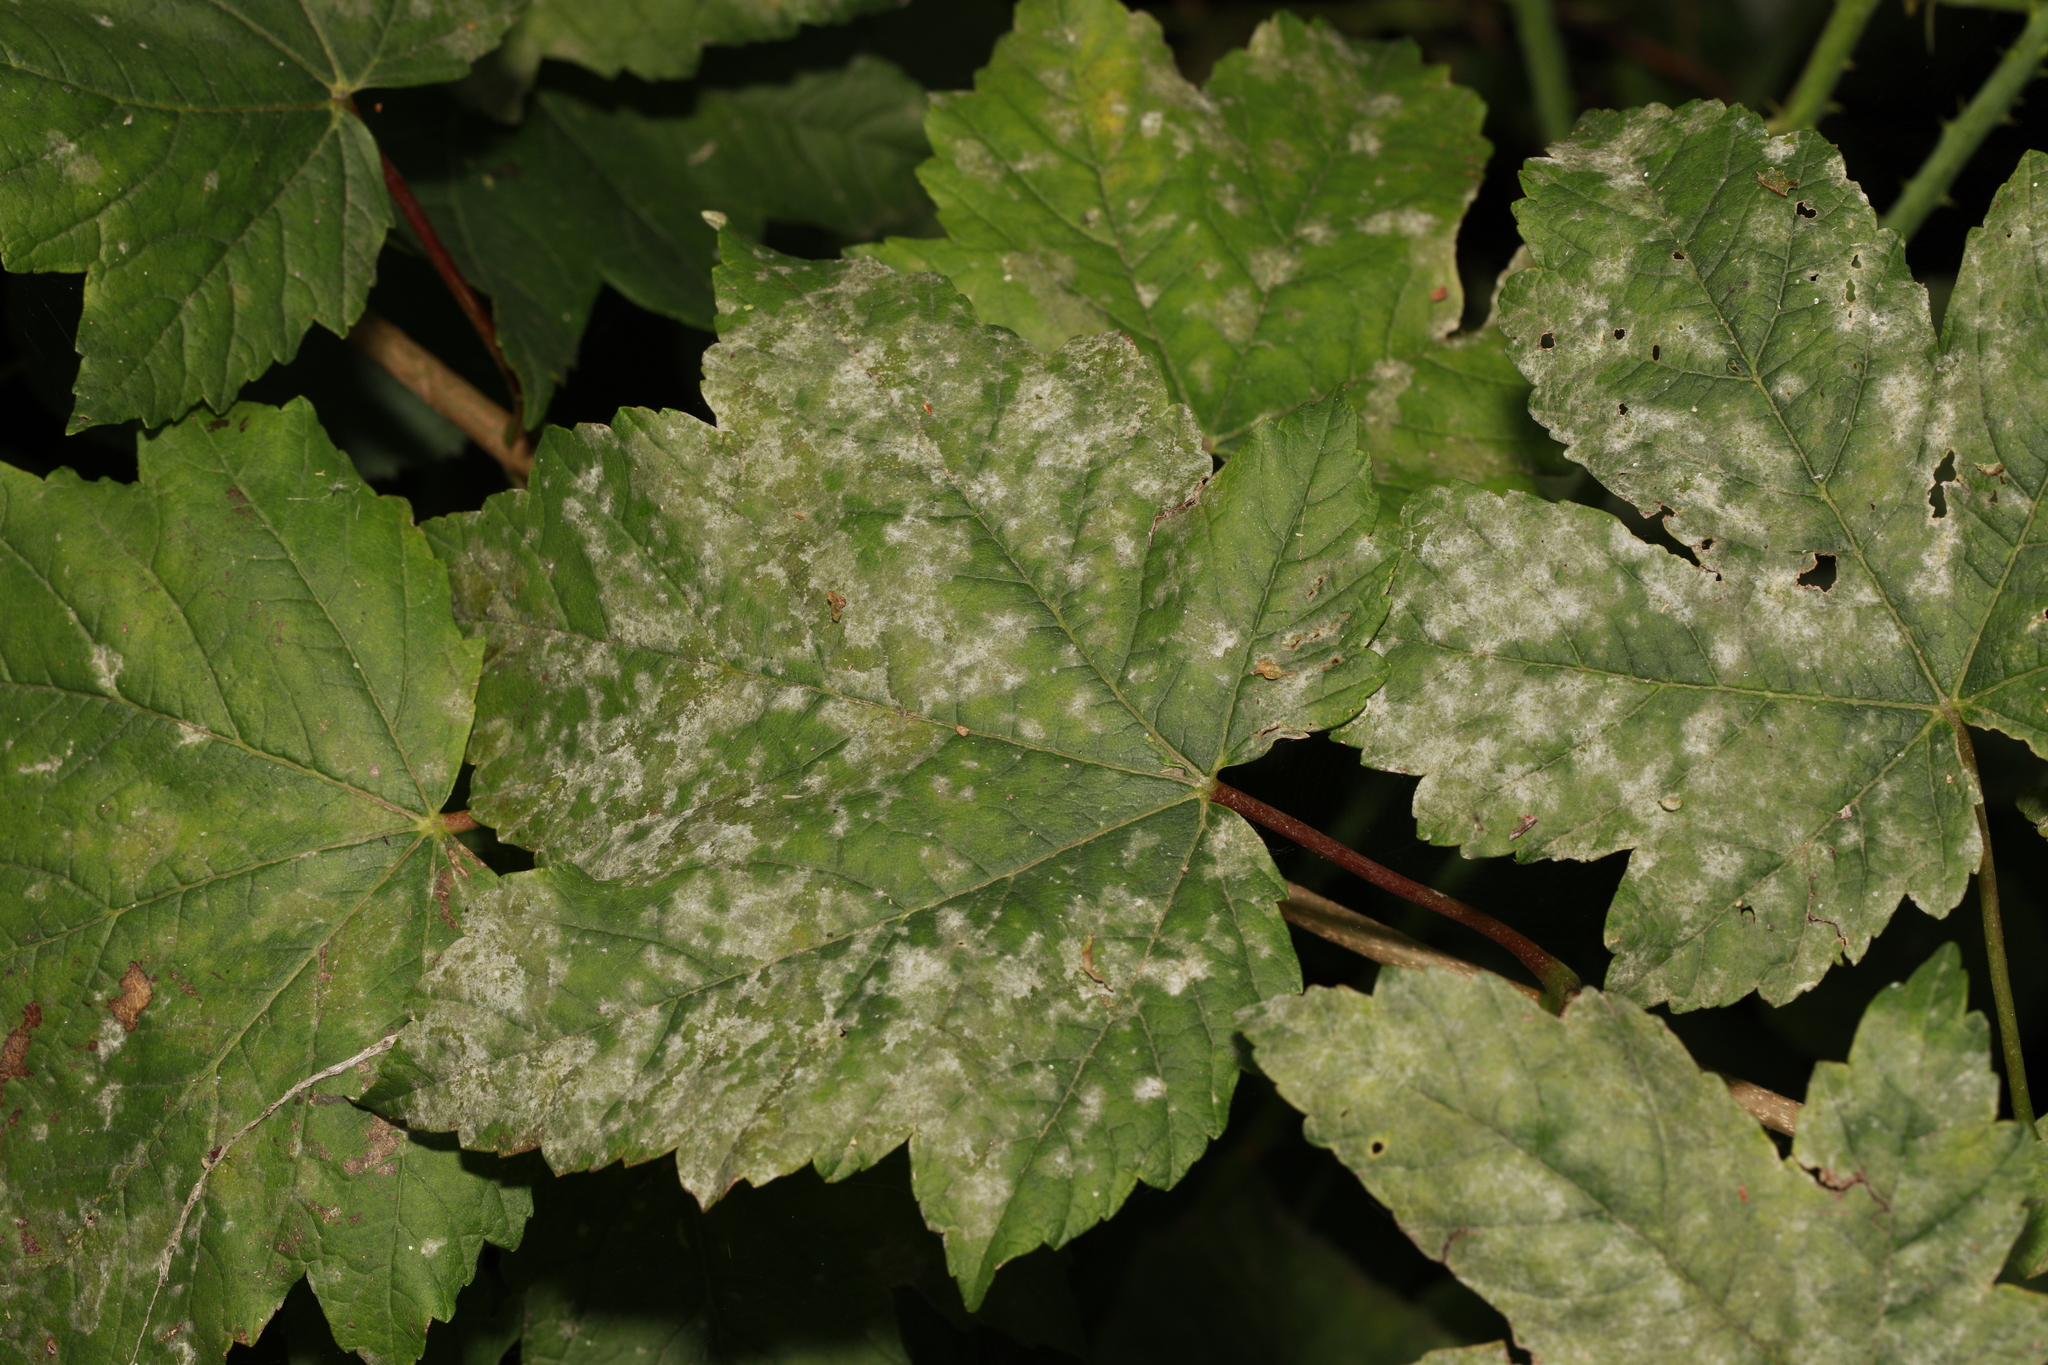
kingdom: Fungi
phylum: Ascomycota
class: Leotiomycetes
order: Helotiales
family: Erysiphaceae
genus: Sawadaea
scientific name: Sawadaea bicornis
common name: Maple mildew
